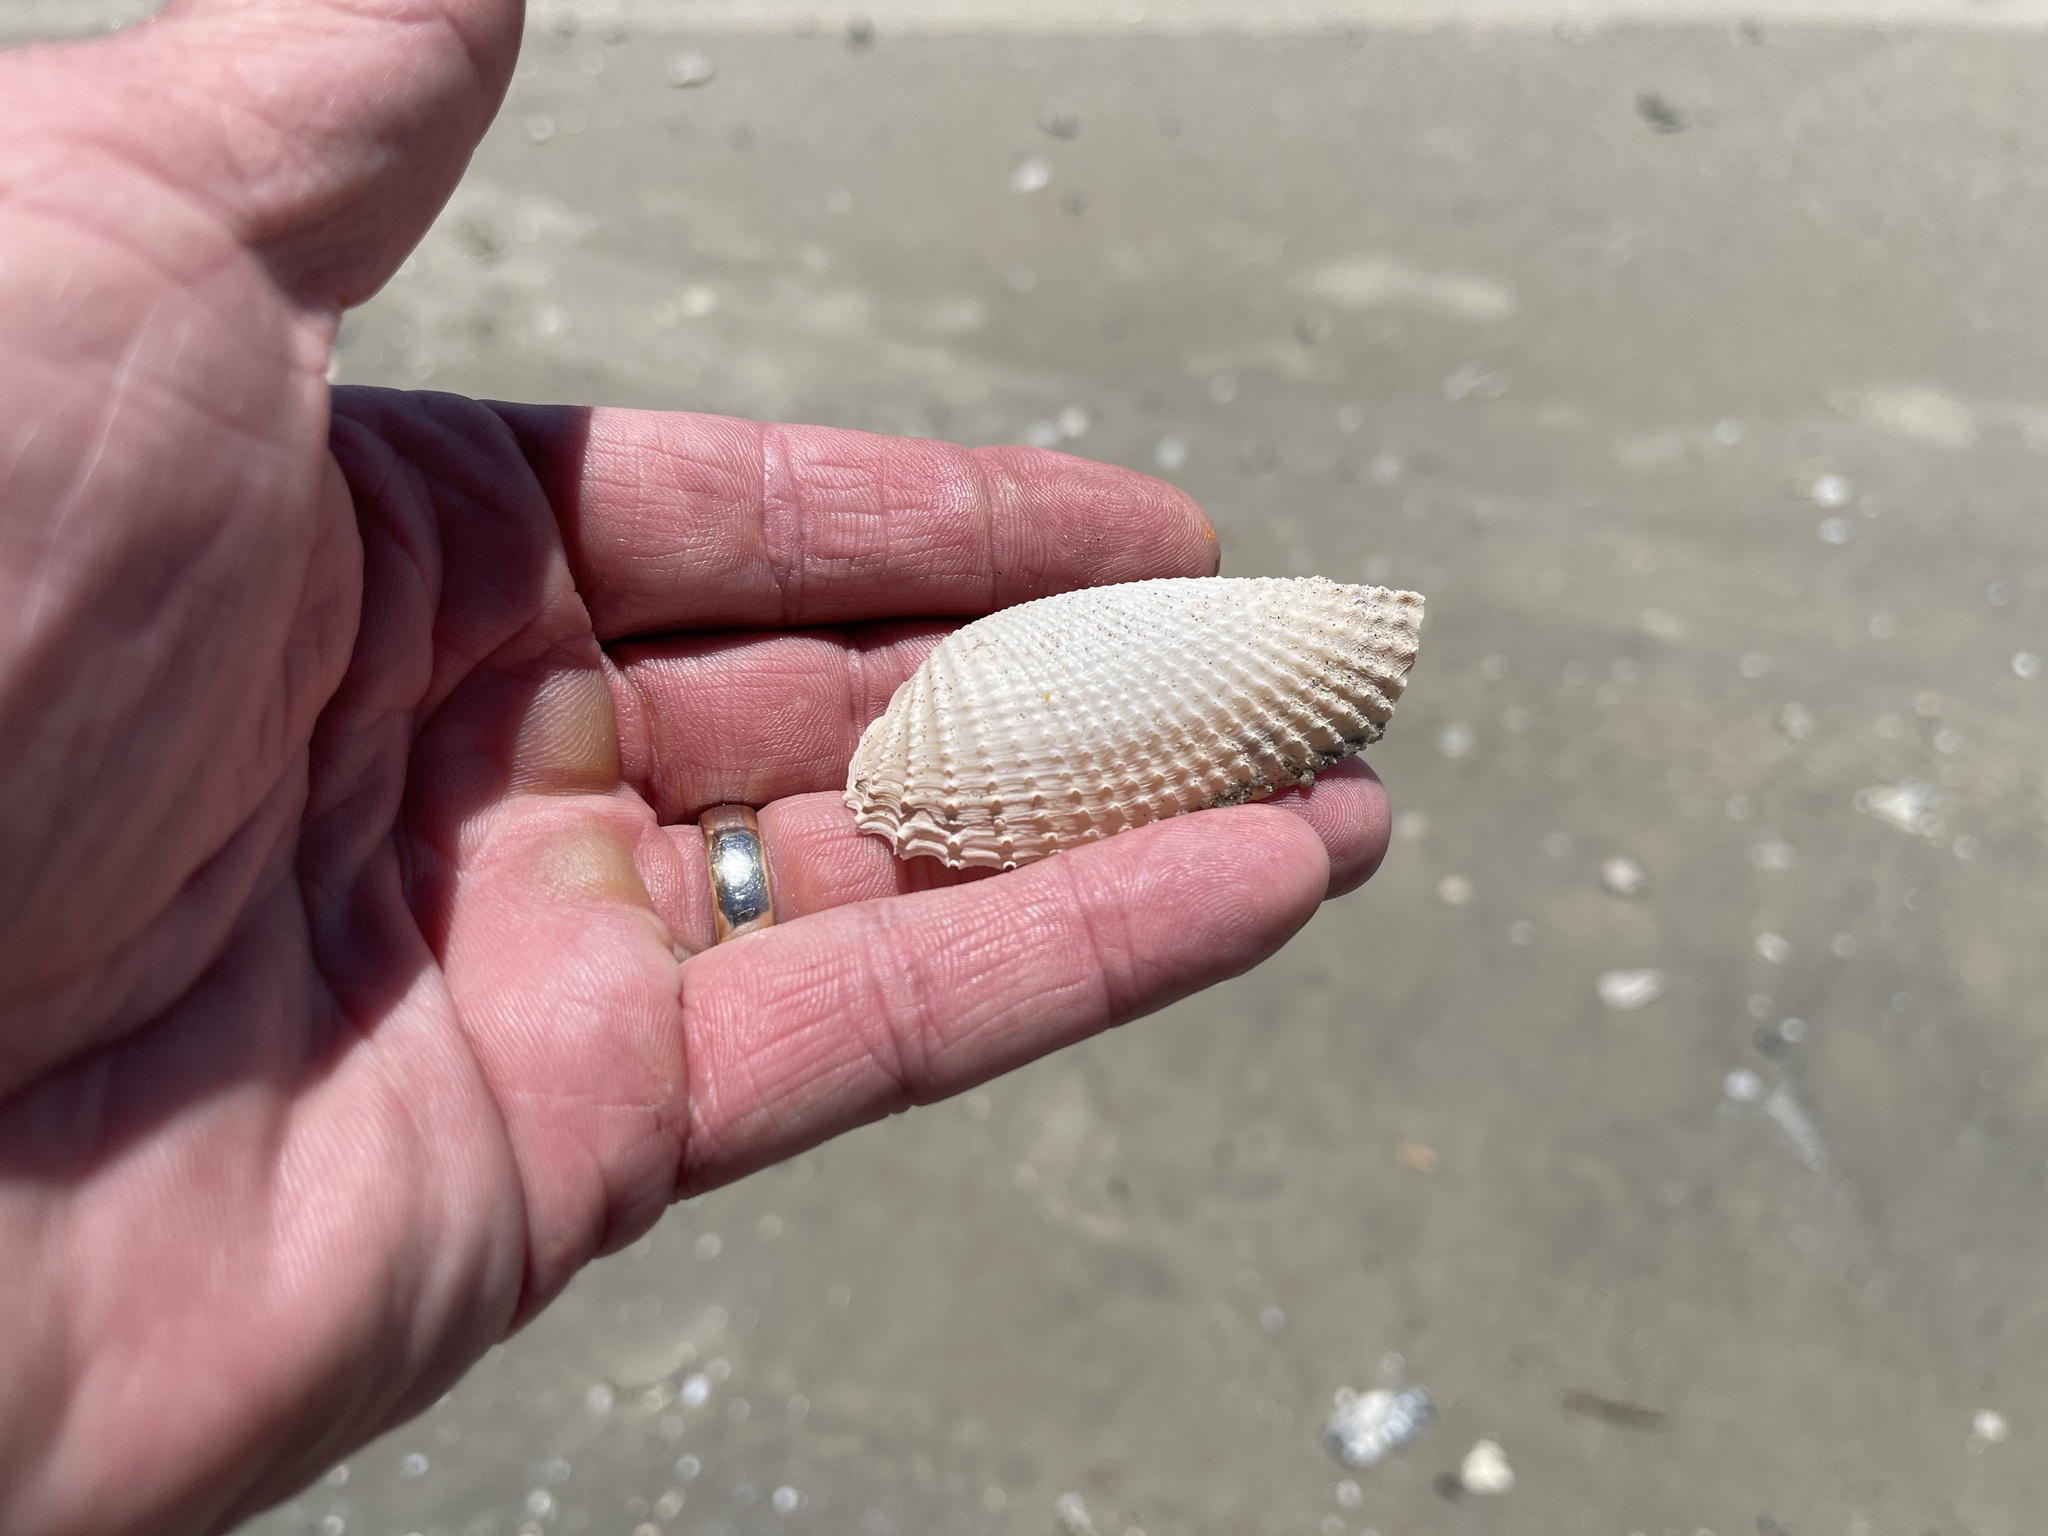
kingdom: Animalia
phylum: Mollusca
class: Bivalvia
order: Myida
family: Pholadidae
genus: Cyrtopleura
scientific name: Cyrtopleura costata
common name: Angel wing
